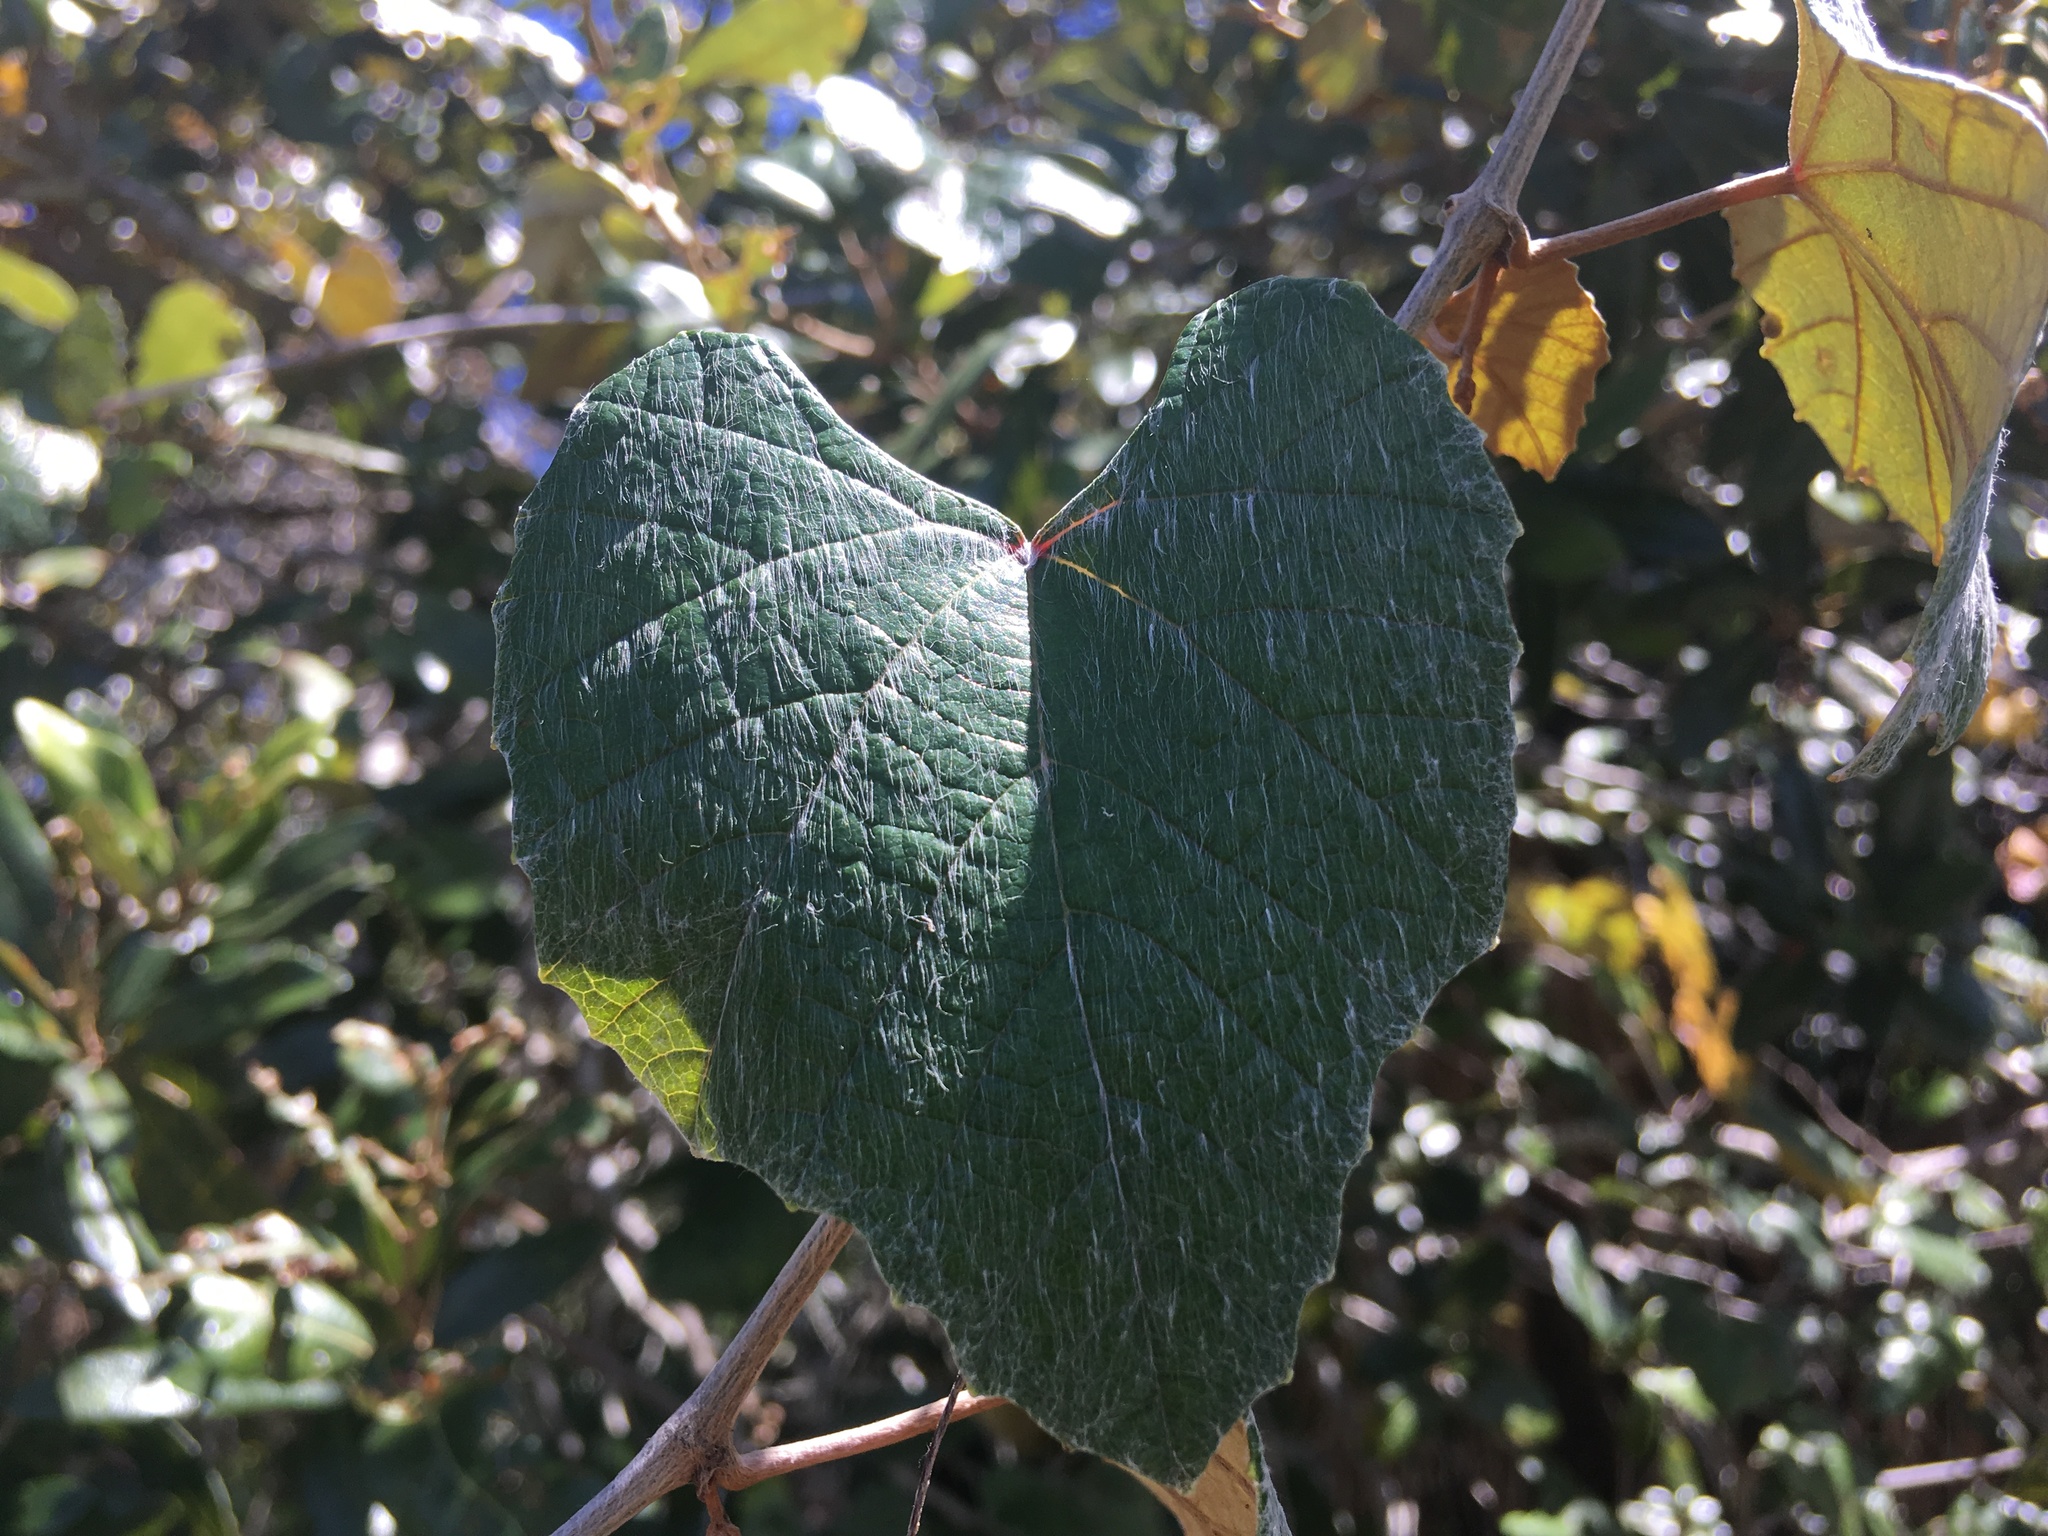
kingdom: Plantae
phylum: Tracheophyta
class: Magnoliopsida
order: Vitales
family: Vitaceae
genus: Vitis
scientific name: Vitis shuttleworthii
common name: Caloosa grape
